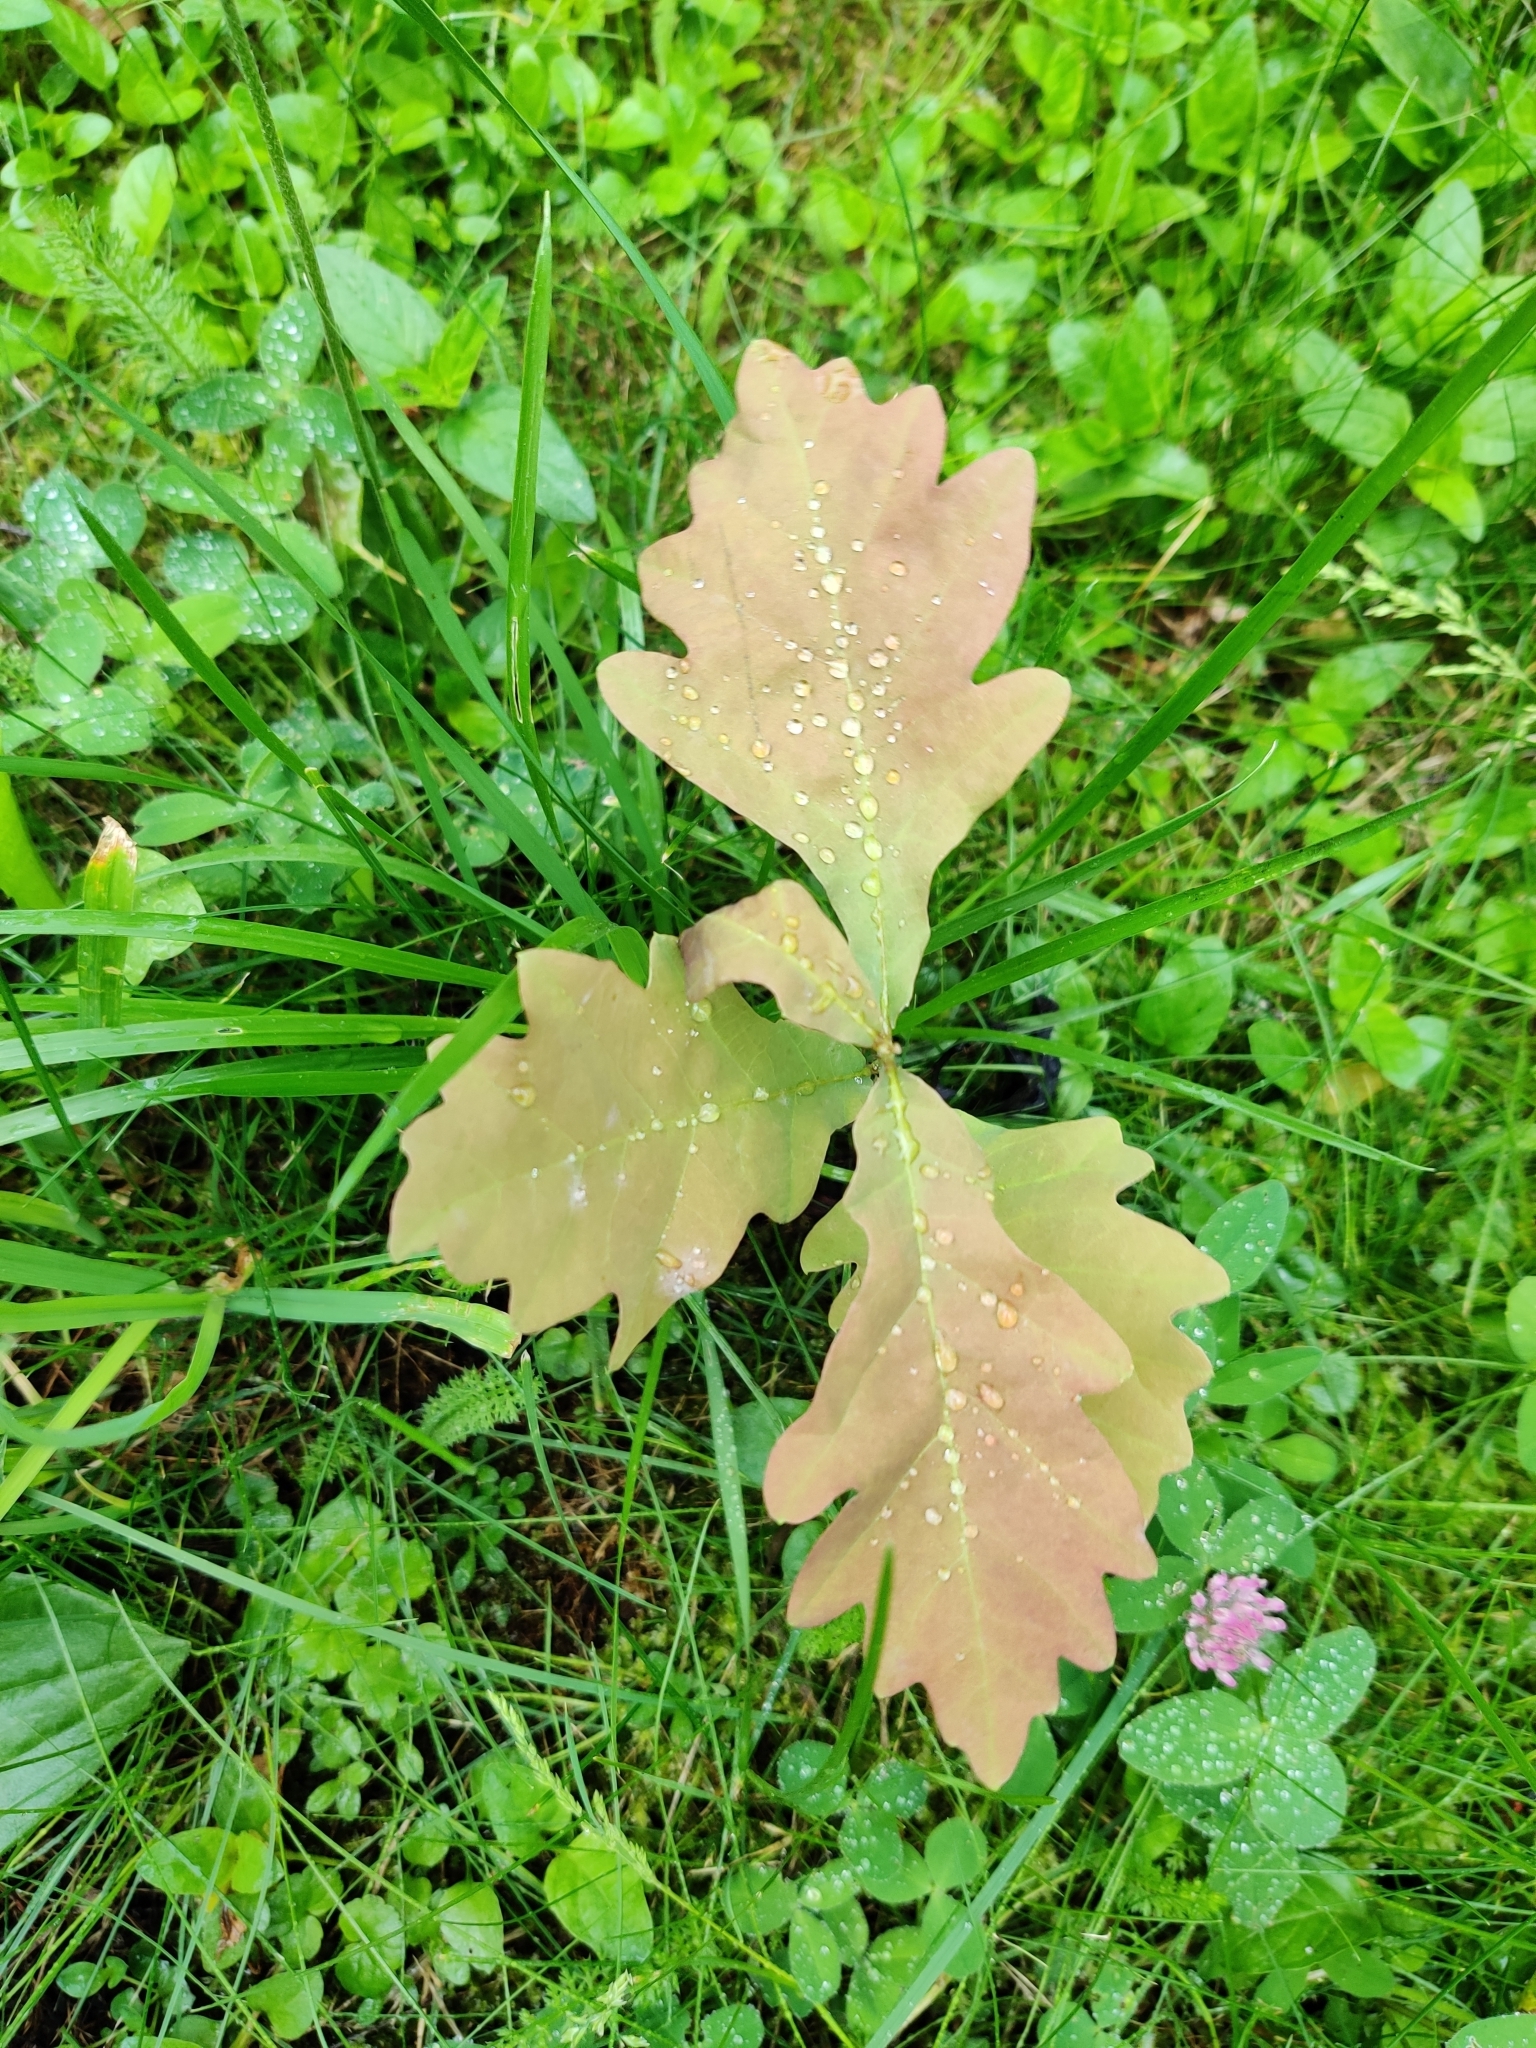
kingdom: Plantae
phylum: Tracheophyta
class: Magnoliopsida
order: Fagales
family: Fagaceae
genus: Quercus
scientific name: Quercus robur
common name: Pedunculate oak
